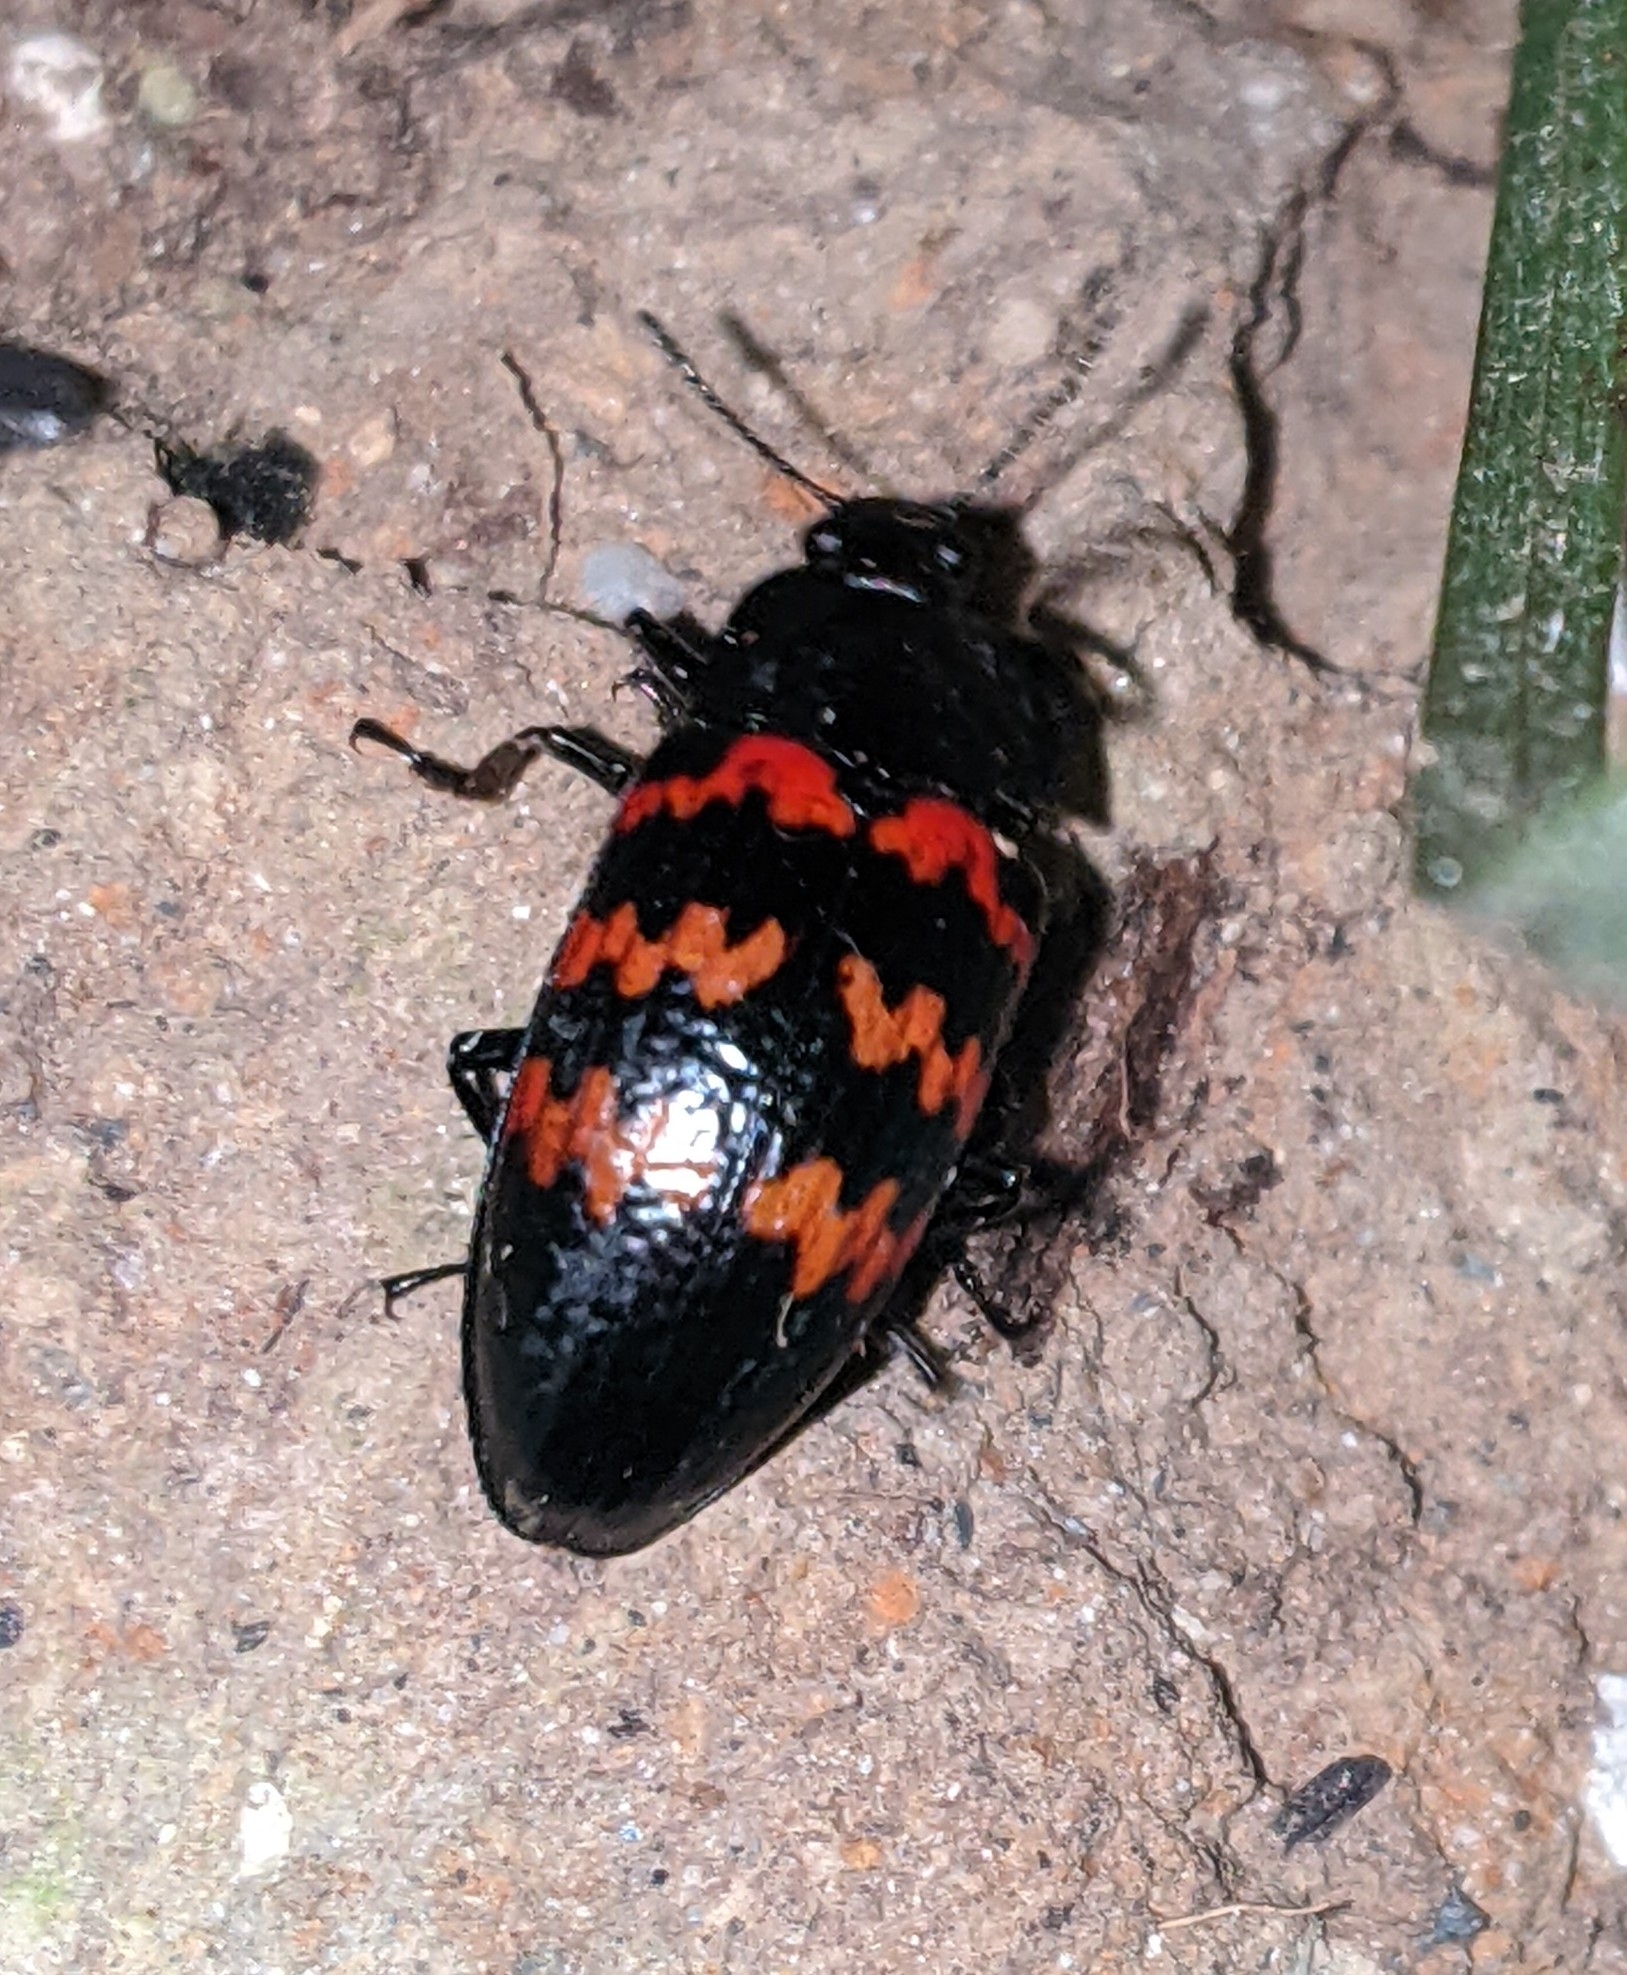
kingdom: Animalia
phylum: Arthropoda
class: Insecta
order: Coleoptera
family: Erotylidae
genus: Pselaphacus
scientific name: Pselaphacus curvipes
